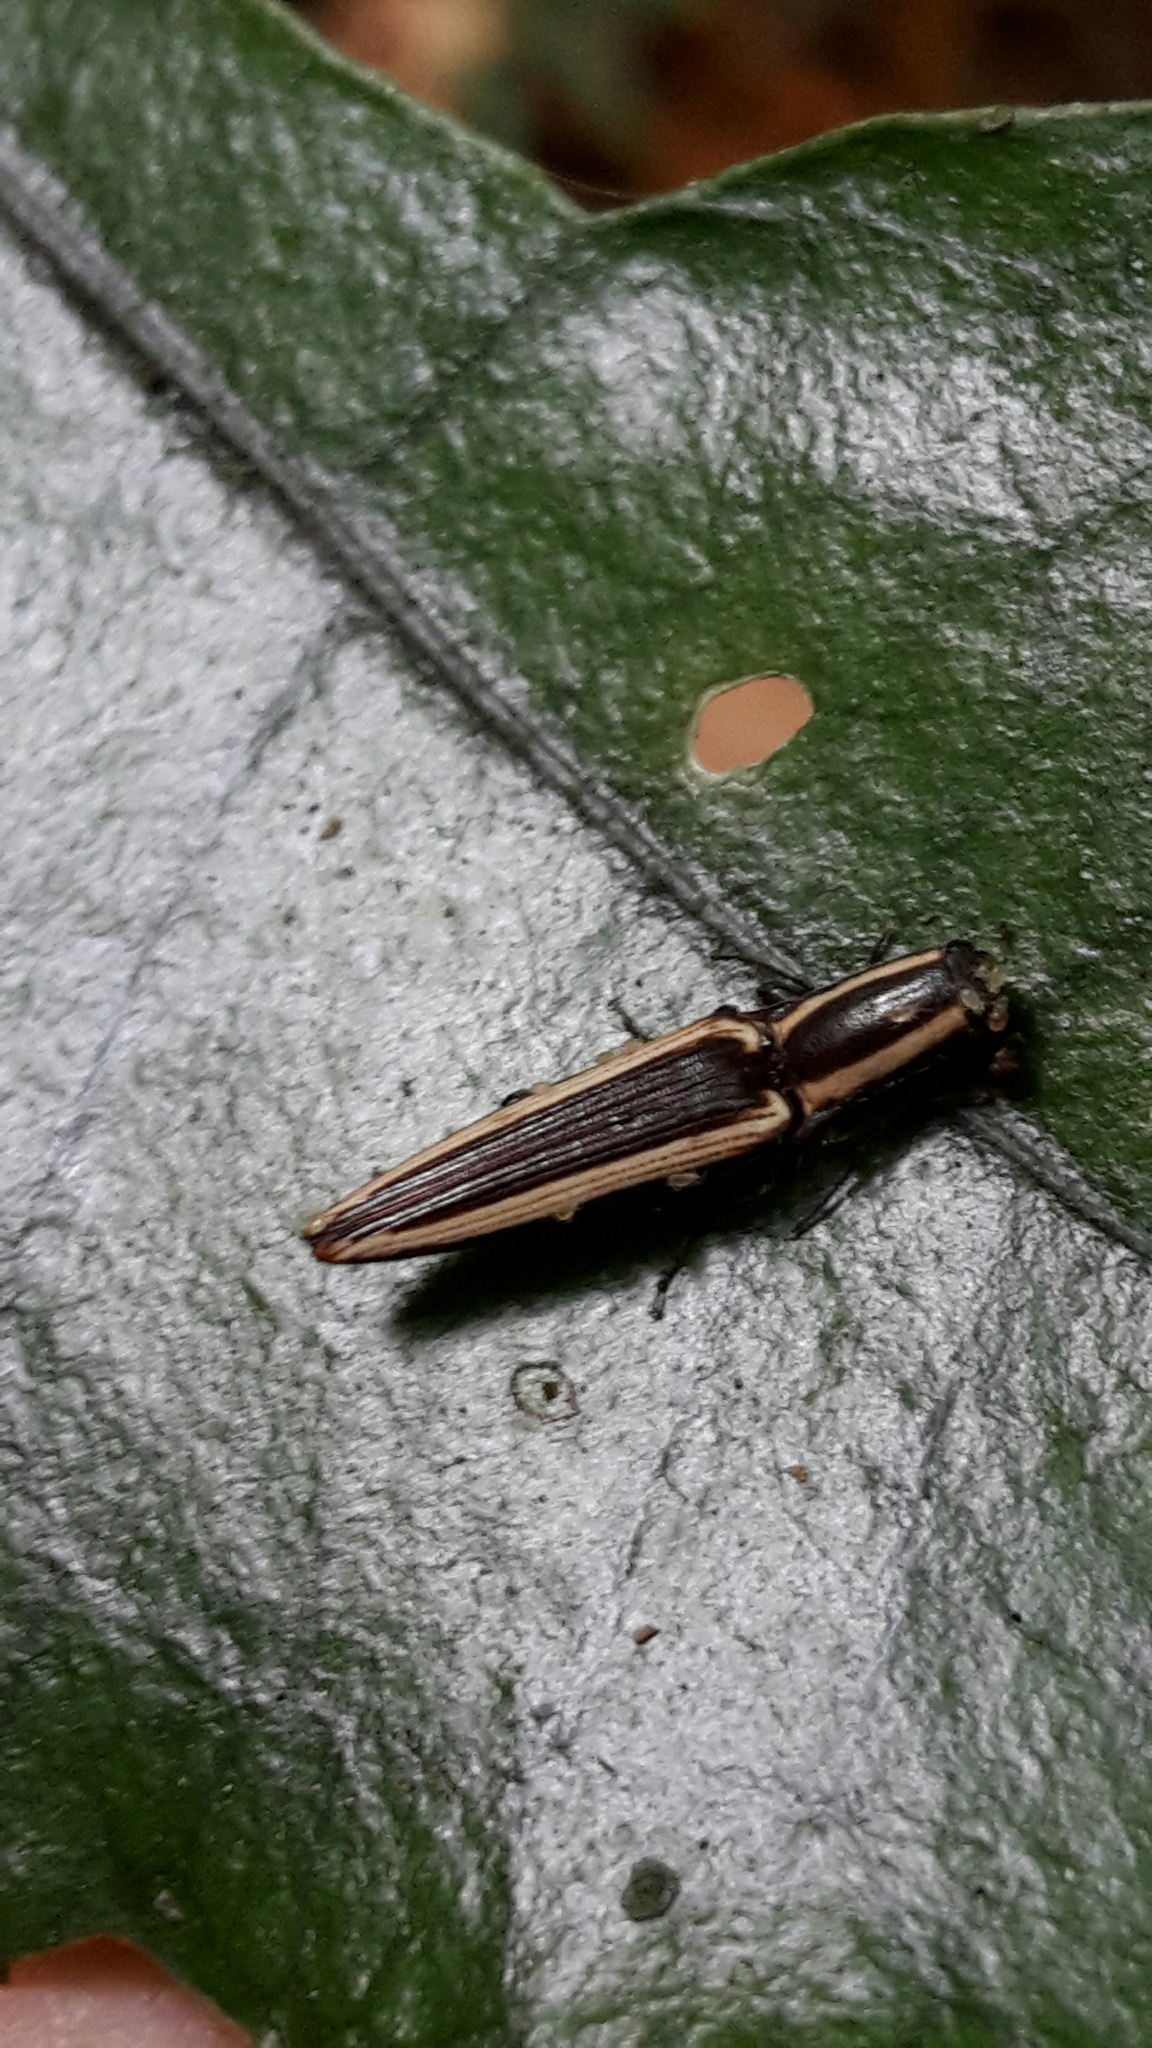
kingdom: Animalia
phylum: Arthropoda
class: Insecta
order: Coleoptera
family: Elateridae
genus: Metablax
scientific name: Metablax
